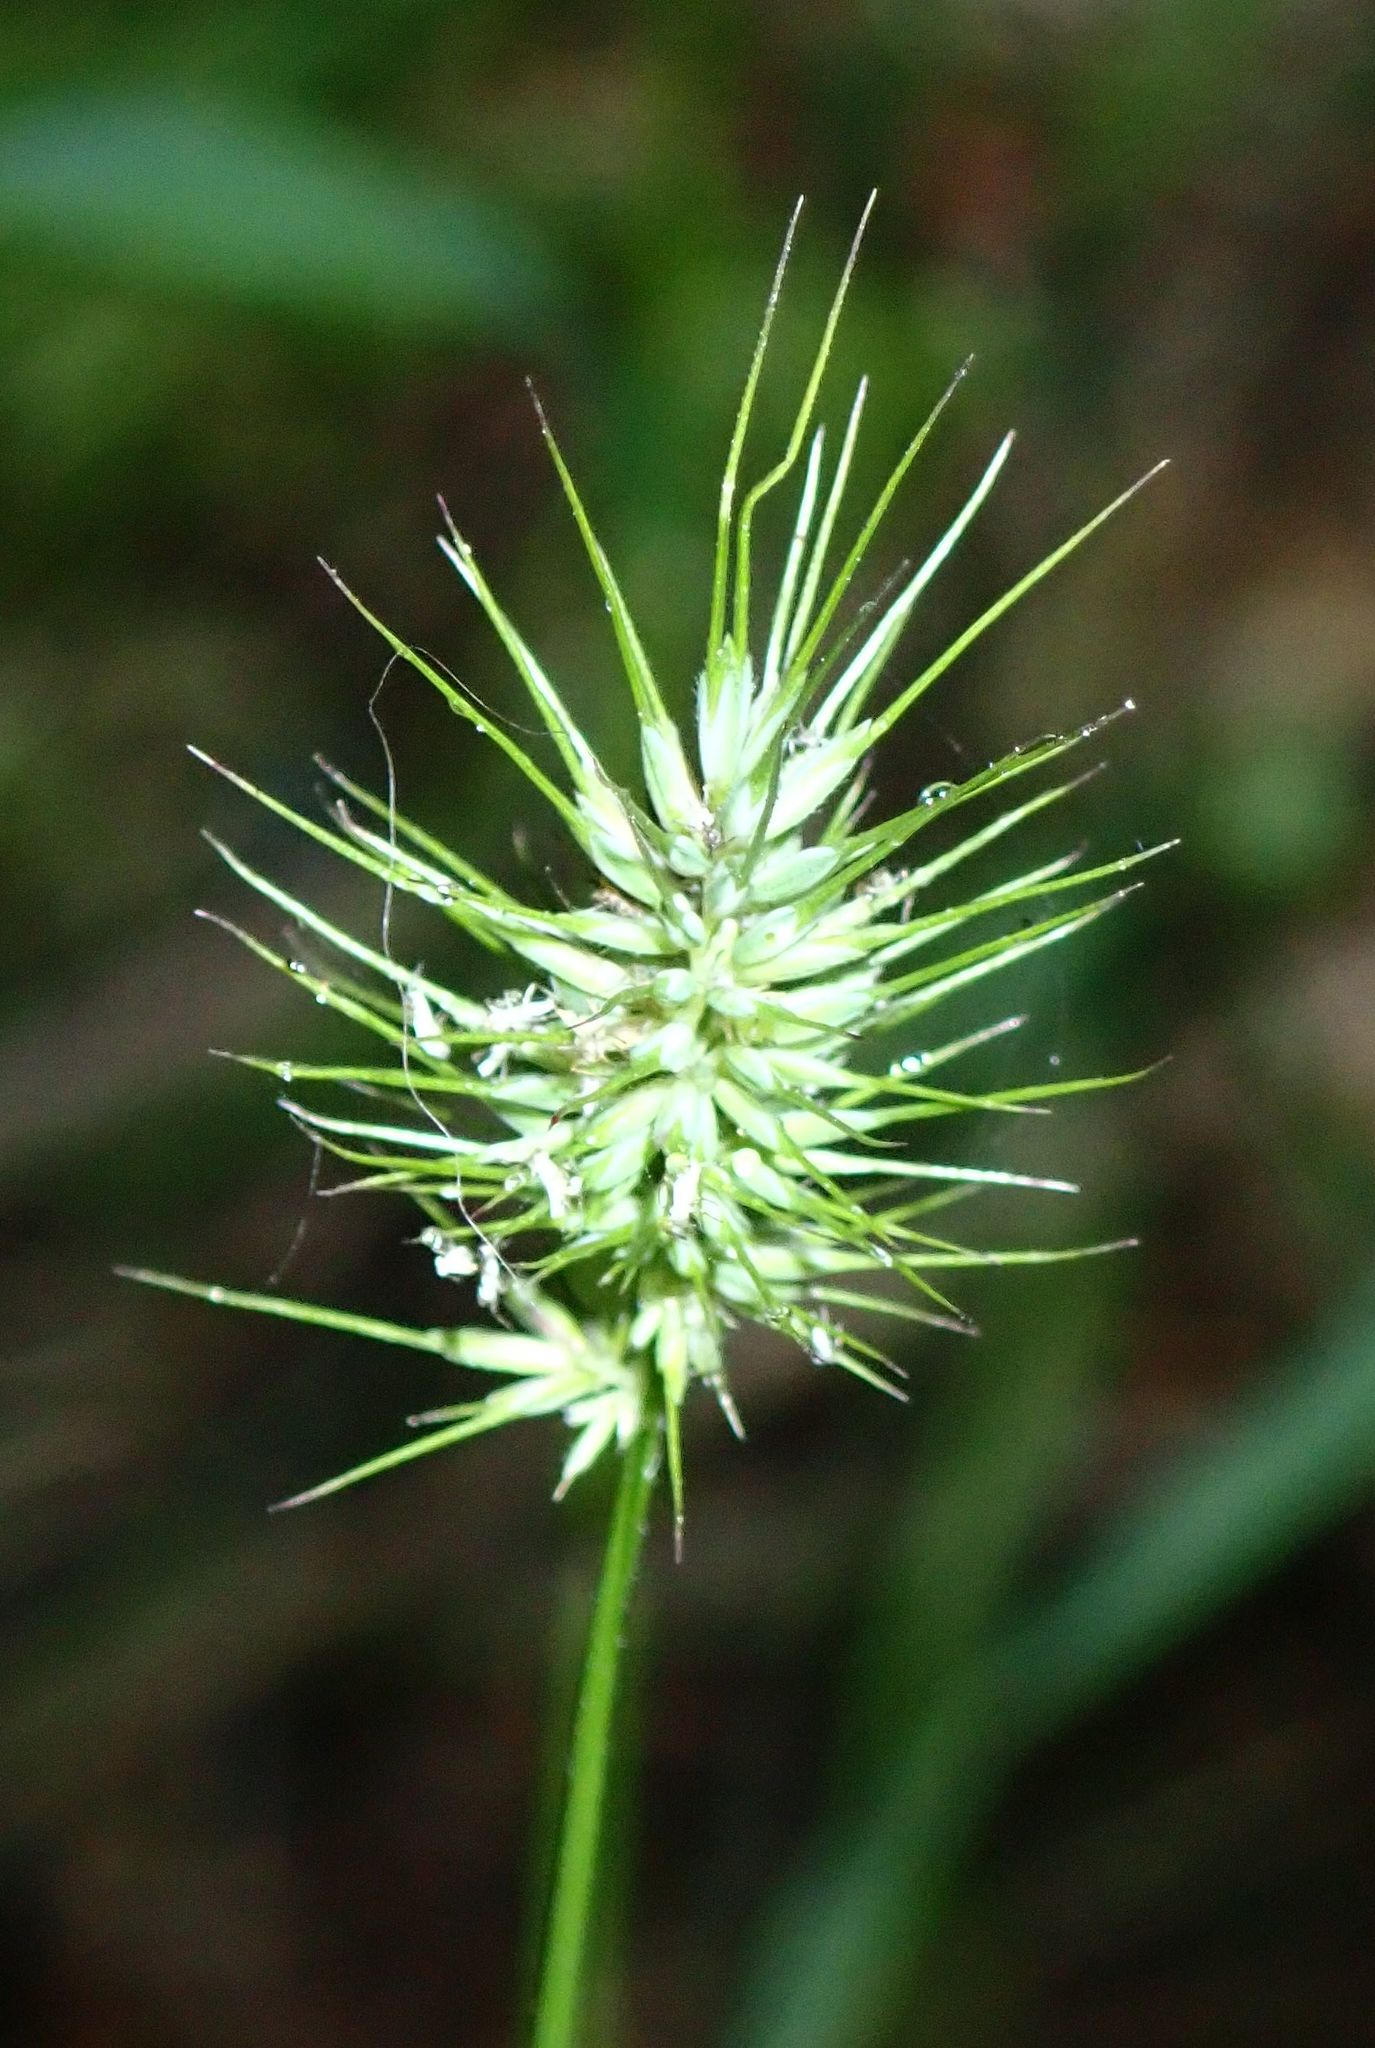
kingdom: Plantae
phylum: Tracheophyta
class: Liliopsida
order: Poales
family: Poaceae
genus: Echinopogon
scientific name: Echinopogon ovatus
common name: Hedgehog-grass
